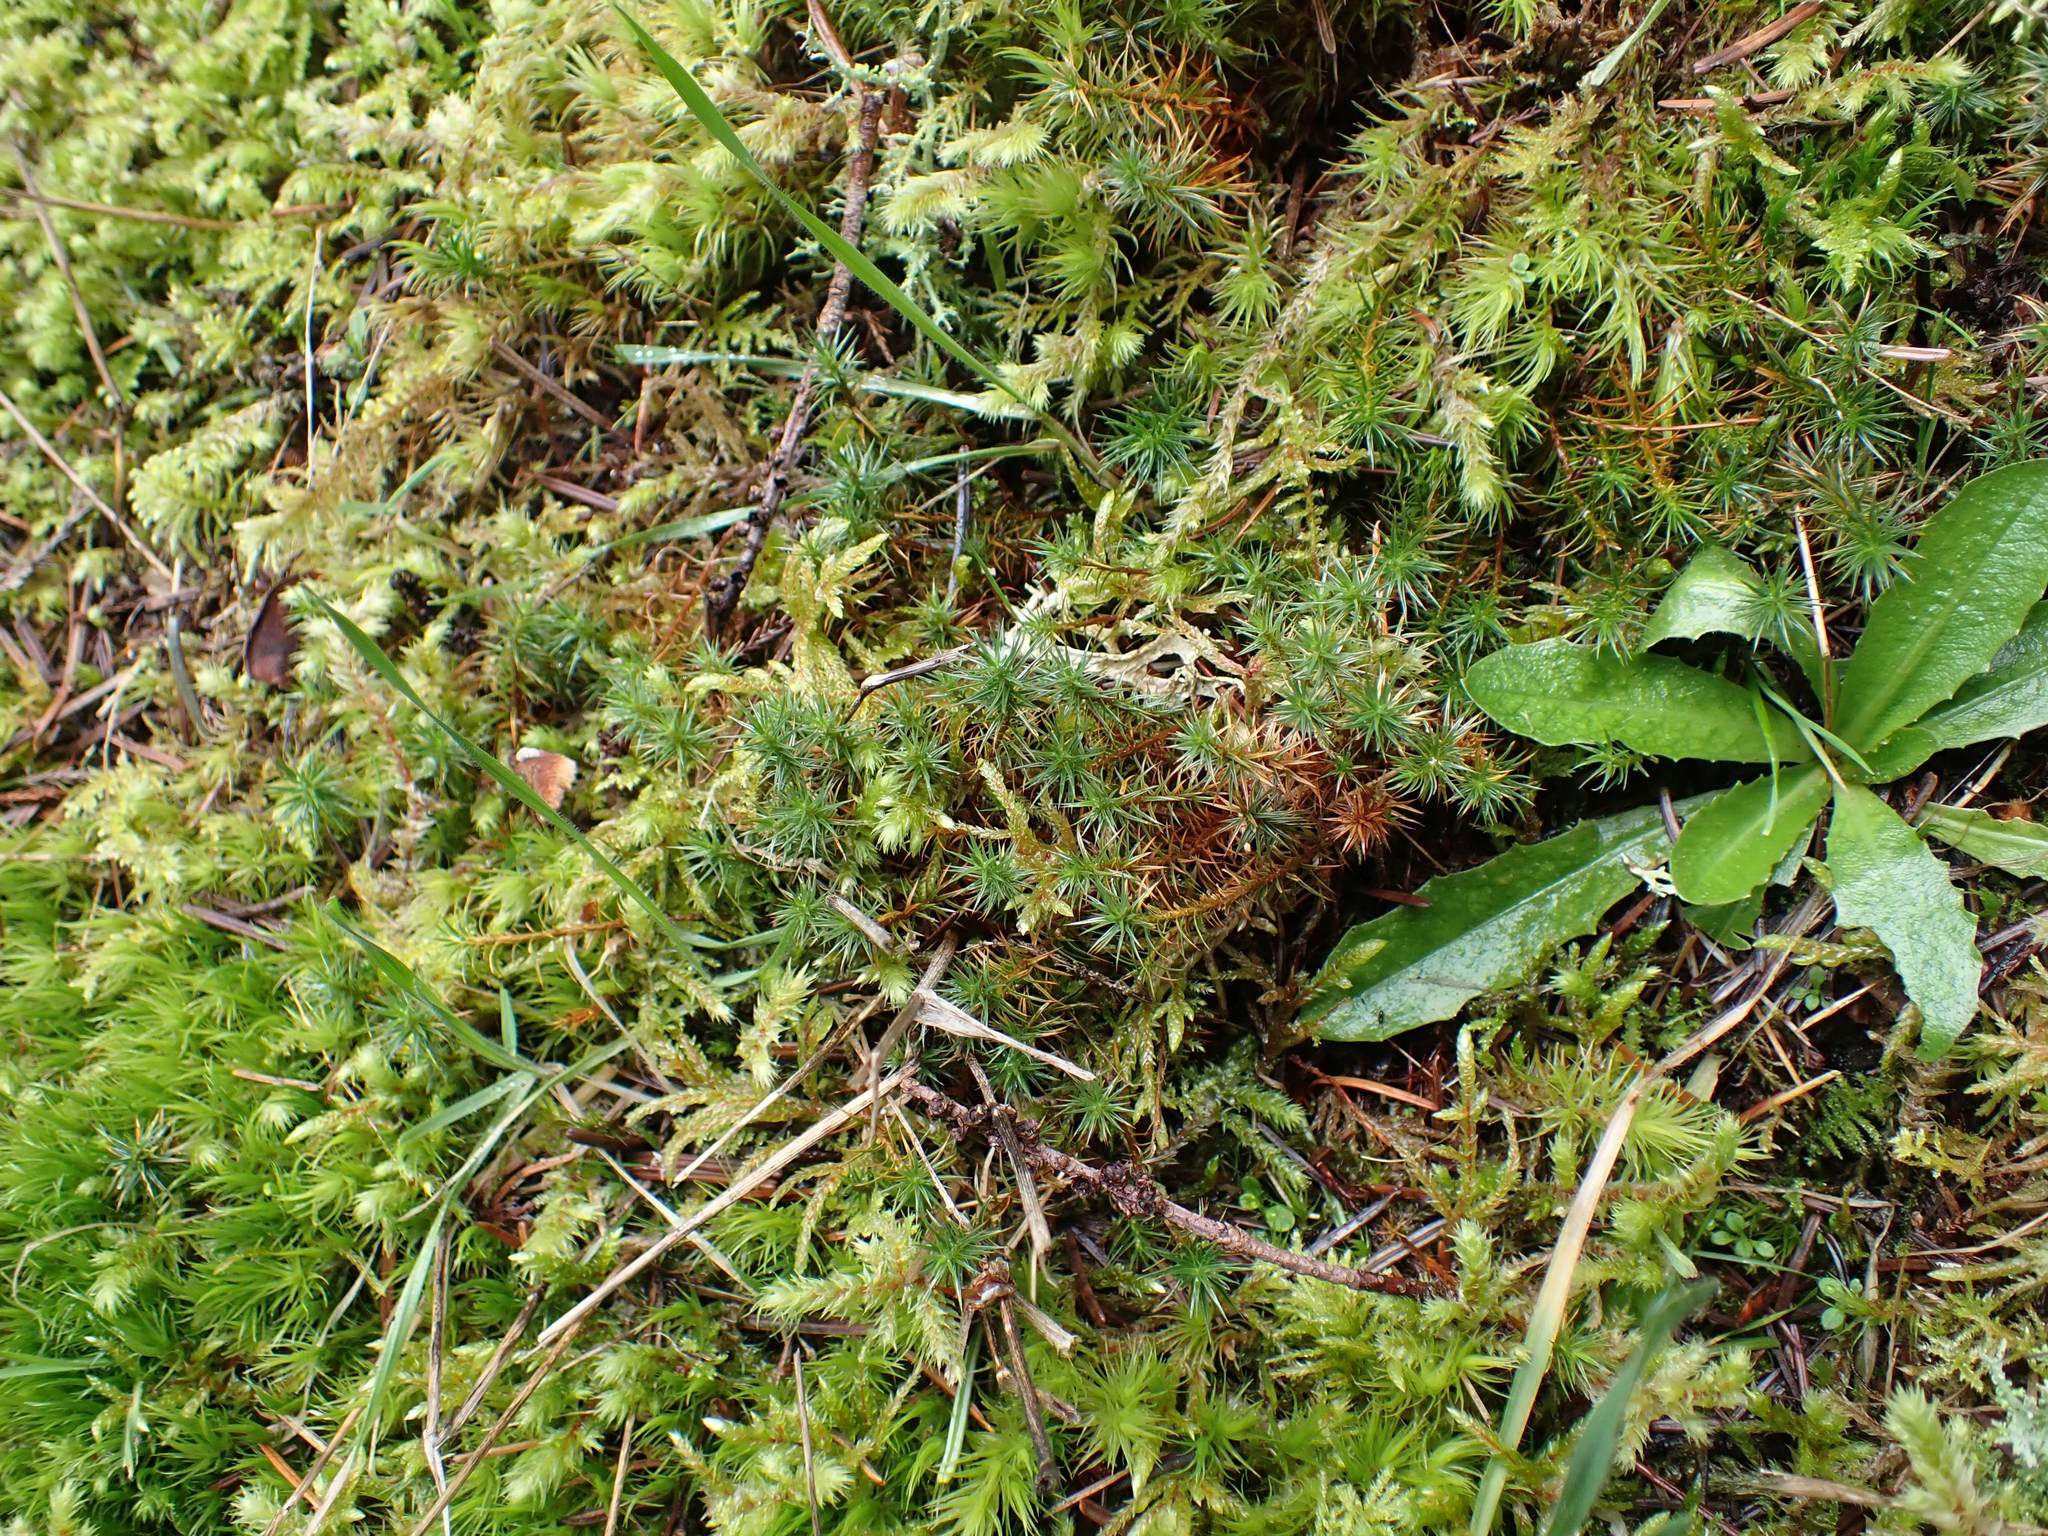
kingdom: Plantae
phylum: Bryophyta
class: Polytrichopsida
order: Polytrichales
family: Polytrichaceae
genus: Polytrichum
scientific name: Polytrichum juniperinum
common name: Juniper haircap moss
